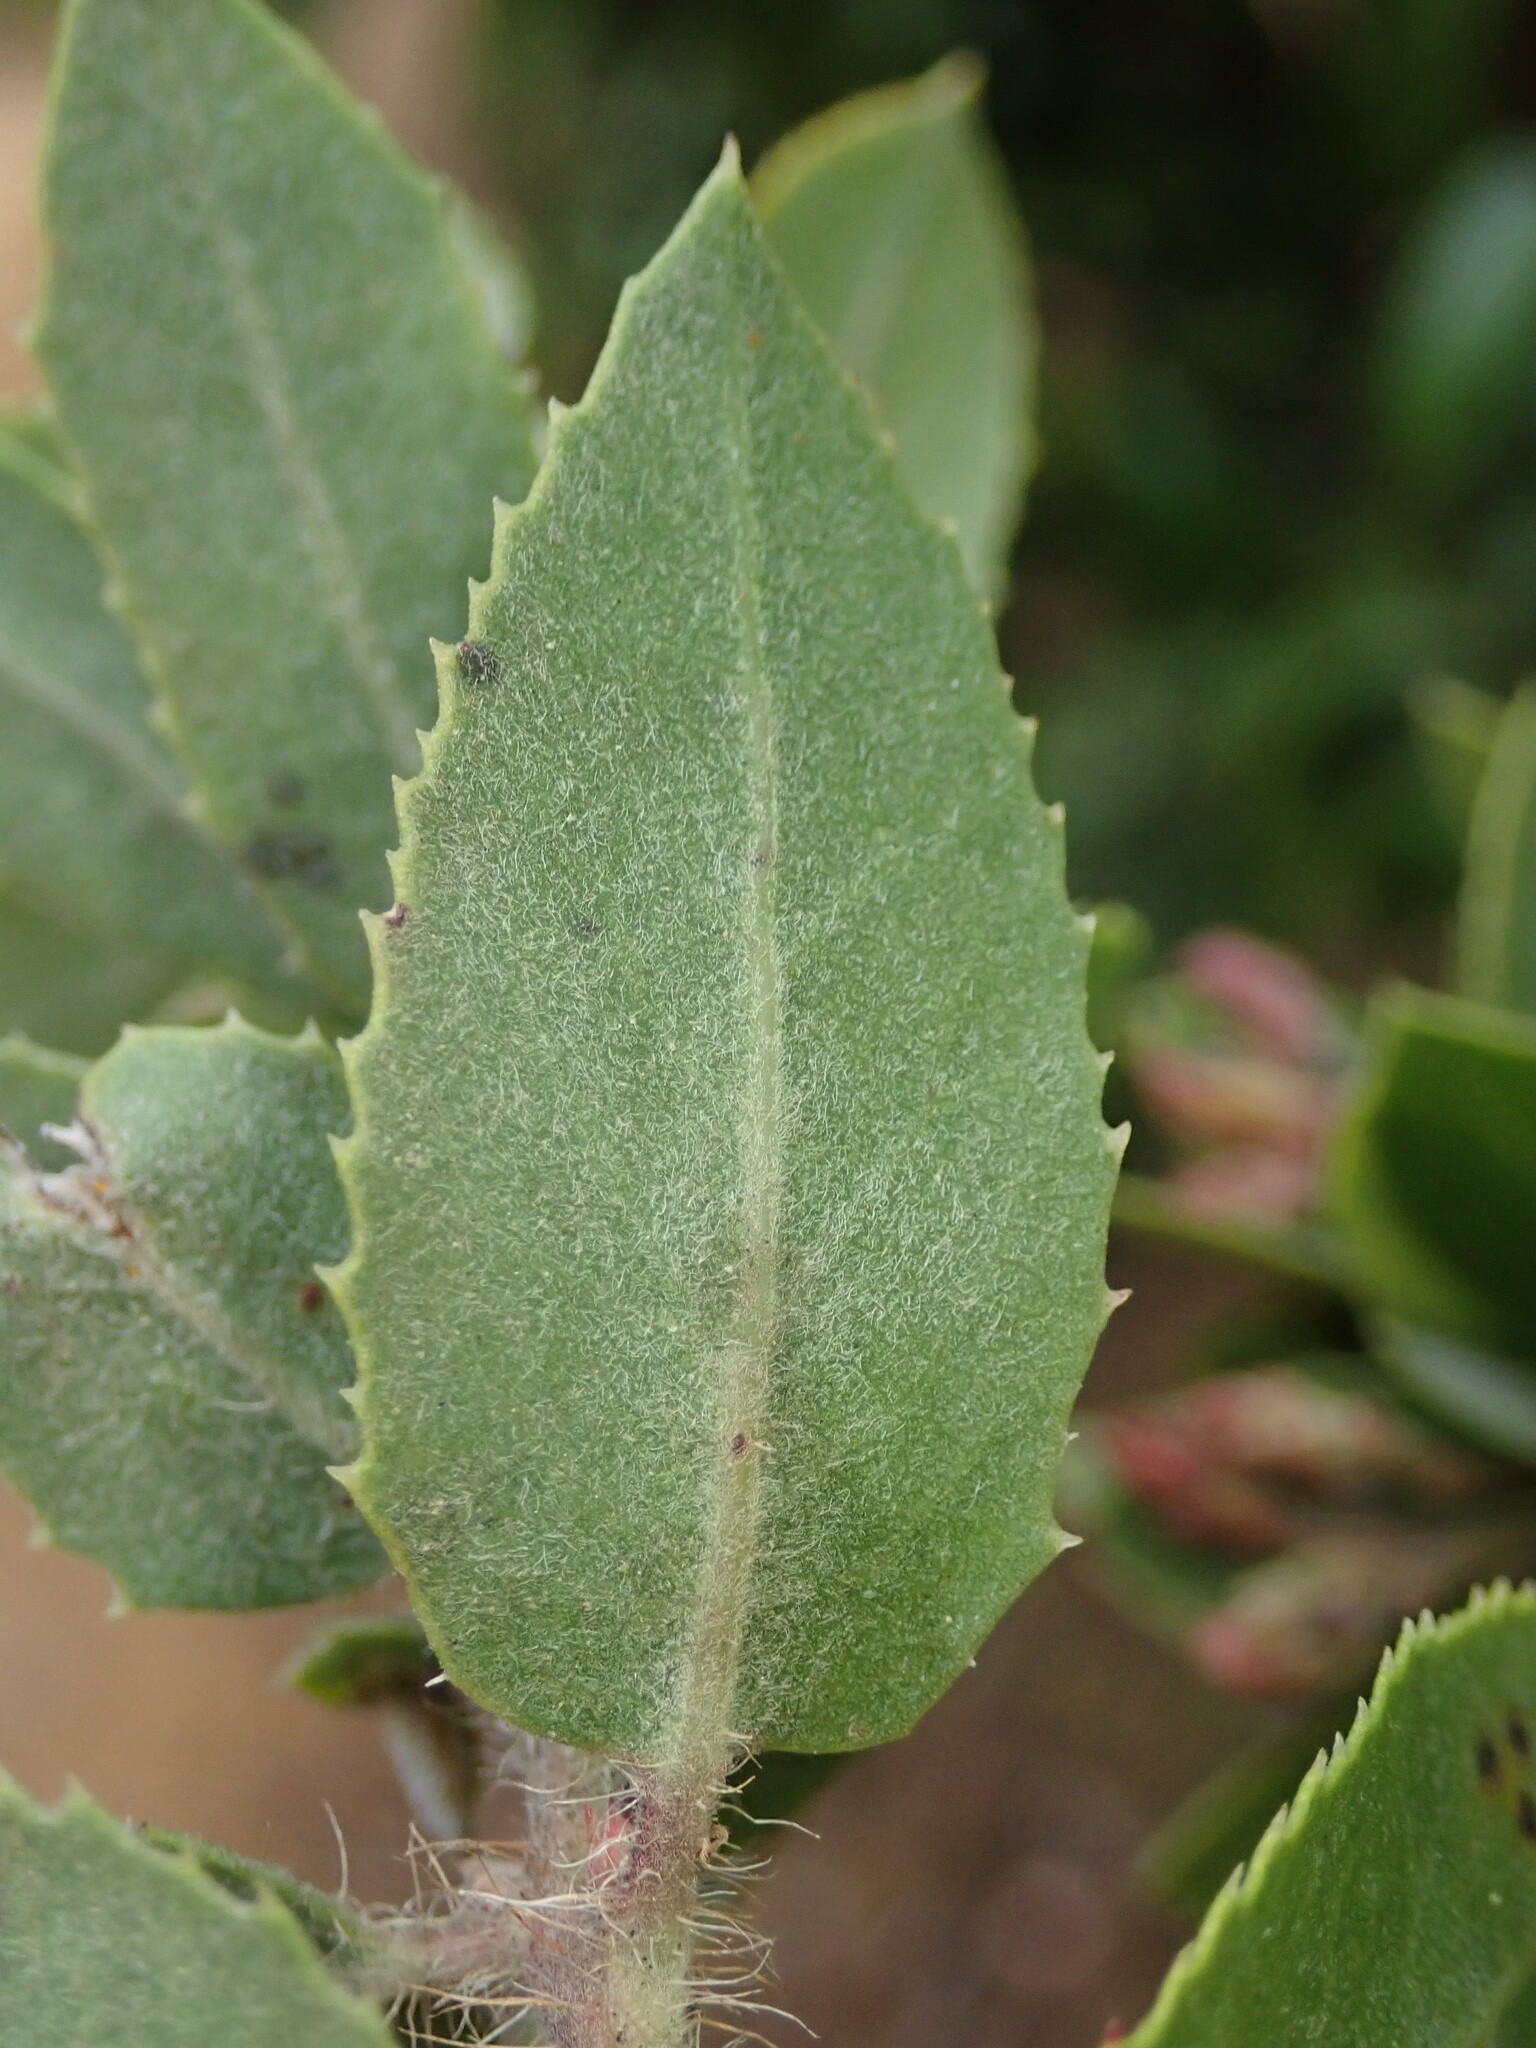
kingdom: Plantae
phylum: Tracheophyta
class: Magnoliopsida
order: Ericales
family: Ericaceae
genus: Arctostaphylos
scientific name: Arctostaphylos crustacea
